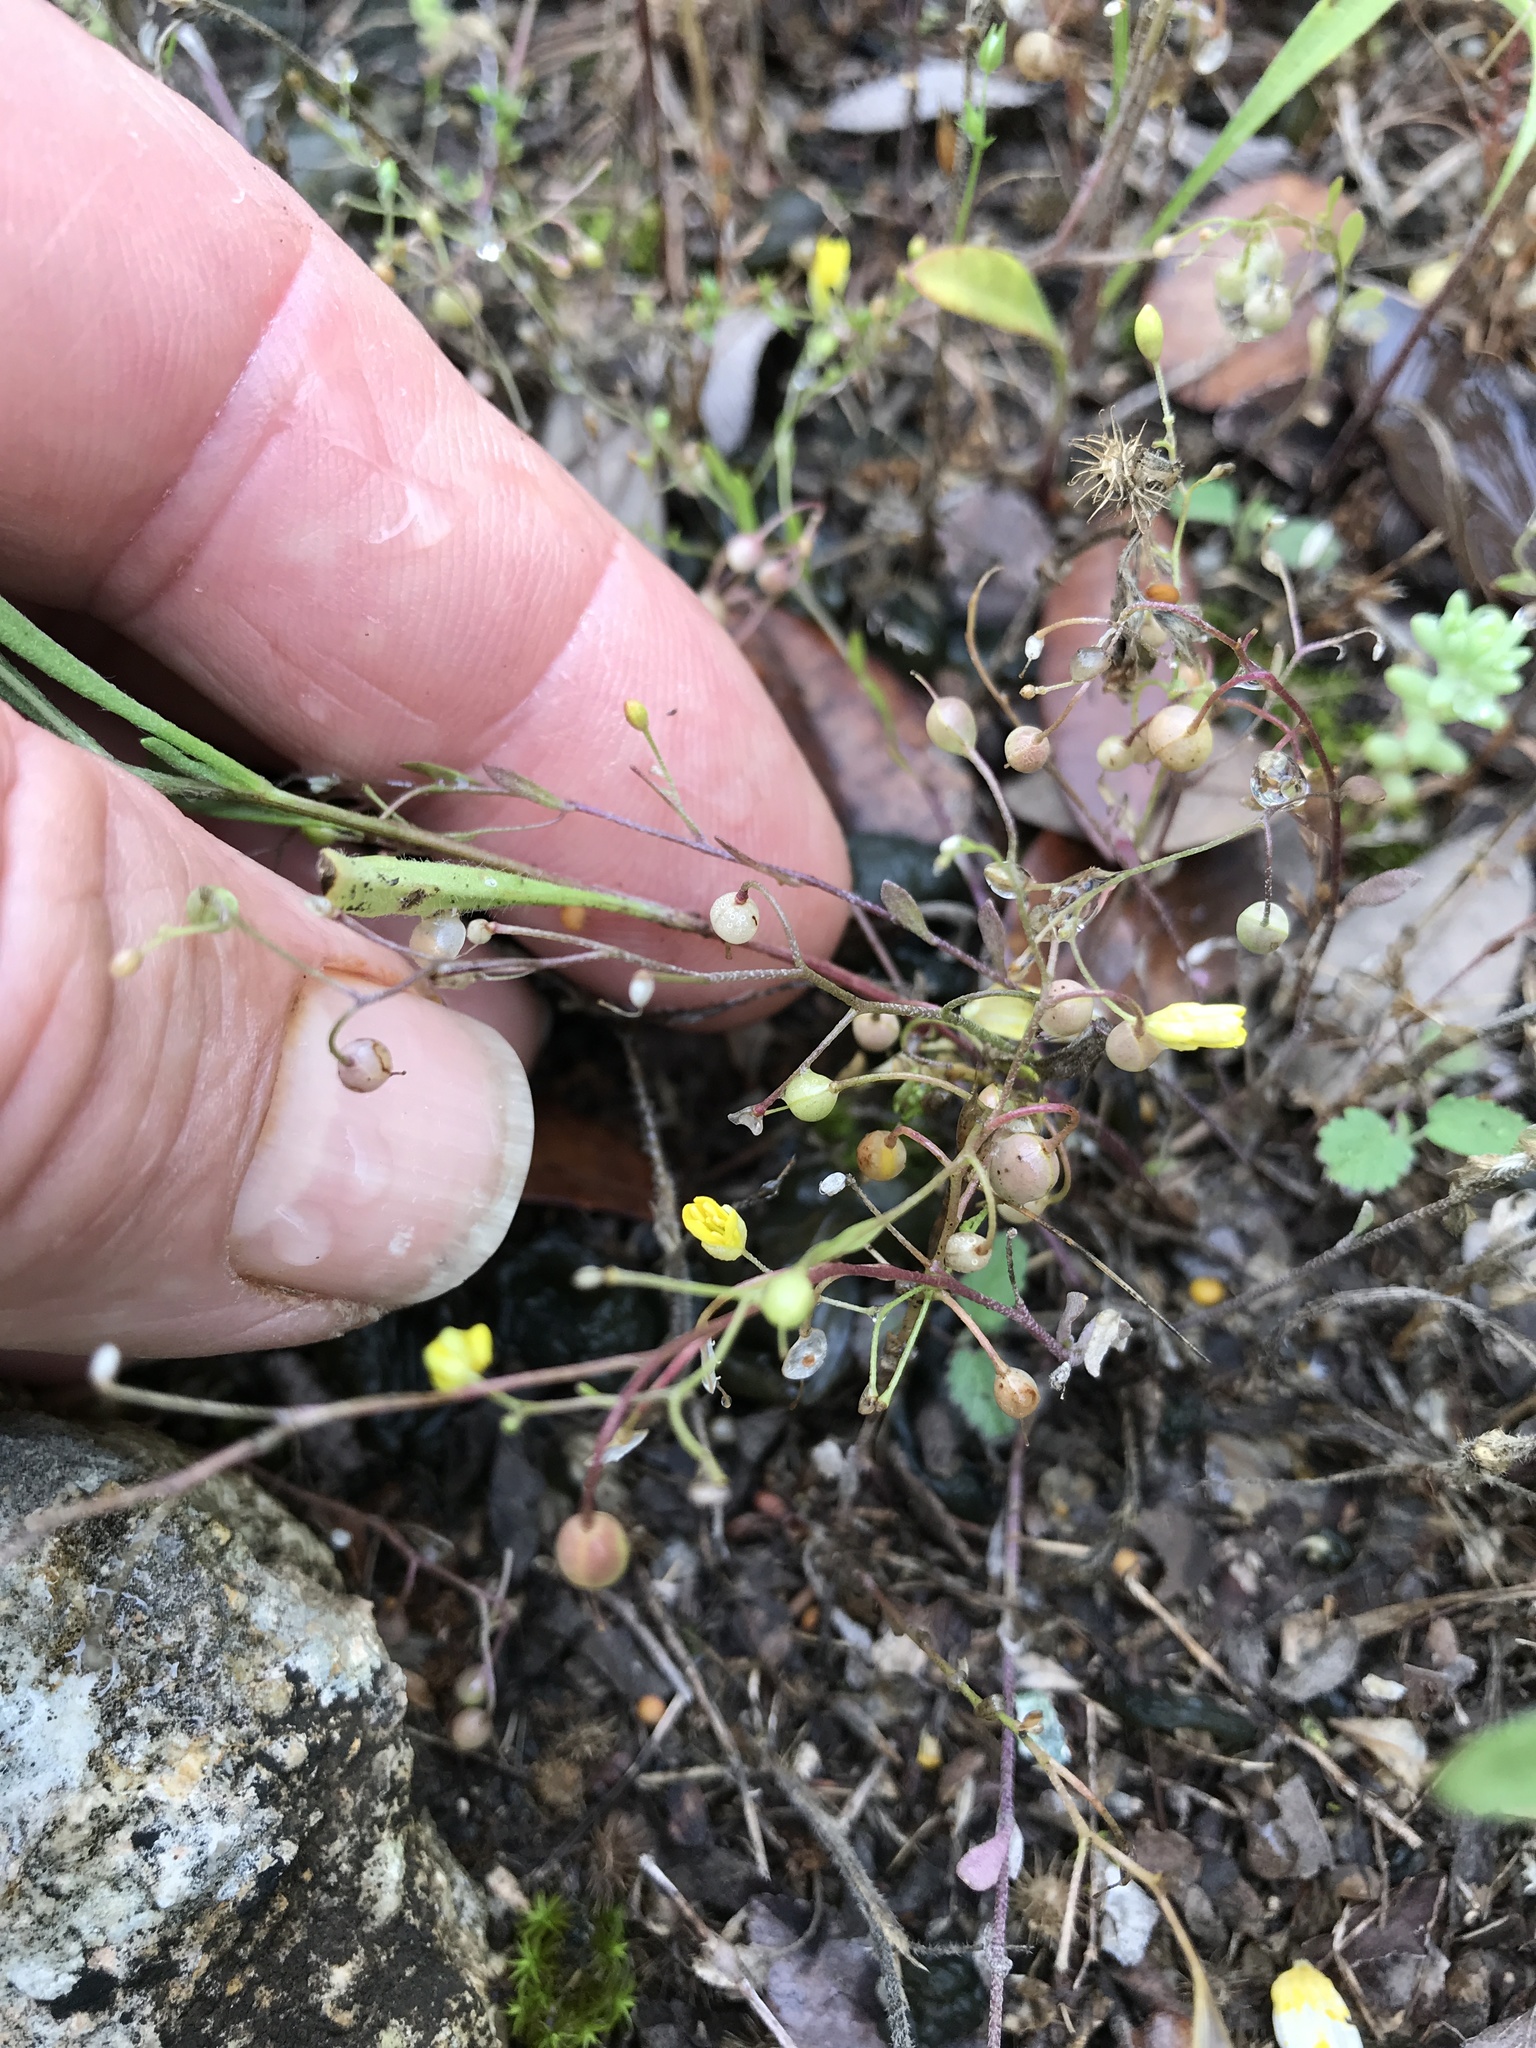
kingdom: Plantae
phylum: Tracheophyta
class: Magnoliopsida
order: Brassicales
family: Brassicaceae
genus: Physaria
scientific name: Physaria recurvata
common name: Gaslight bladderpod
